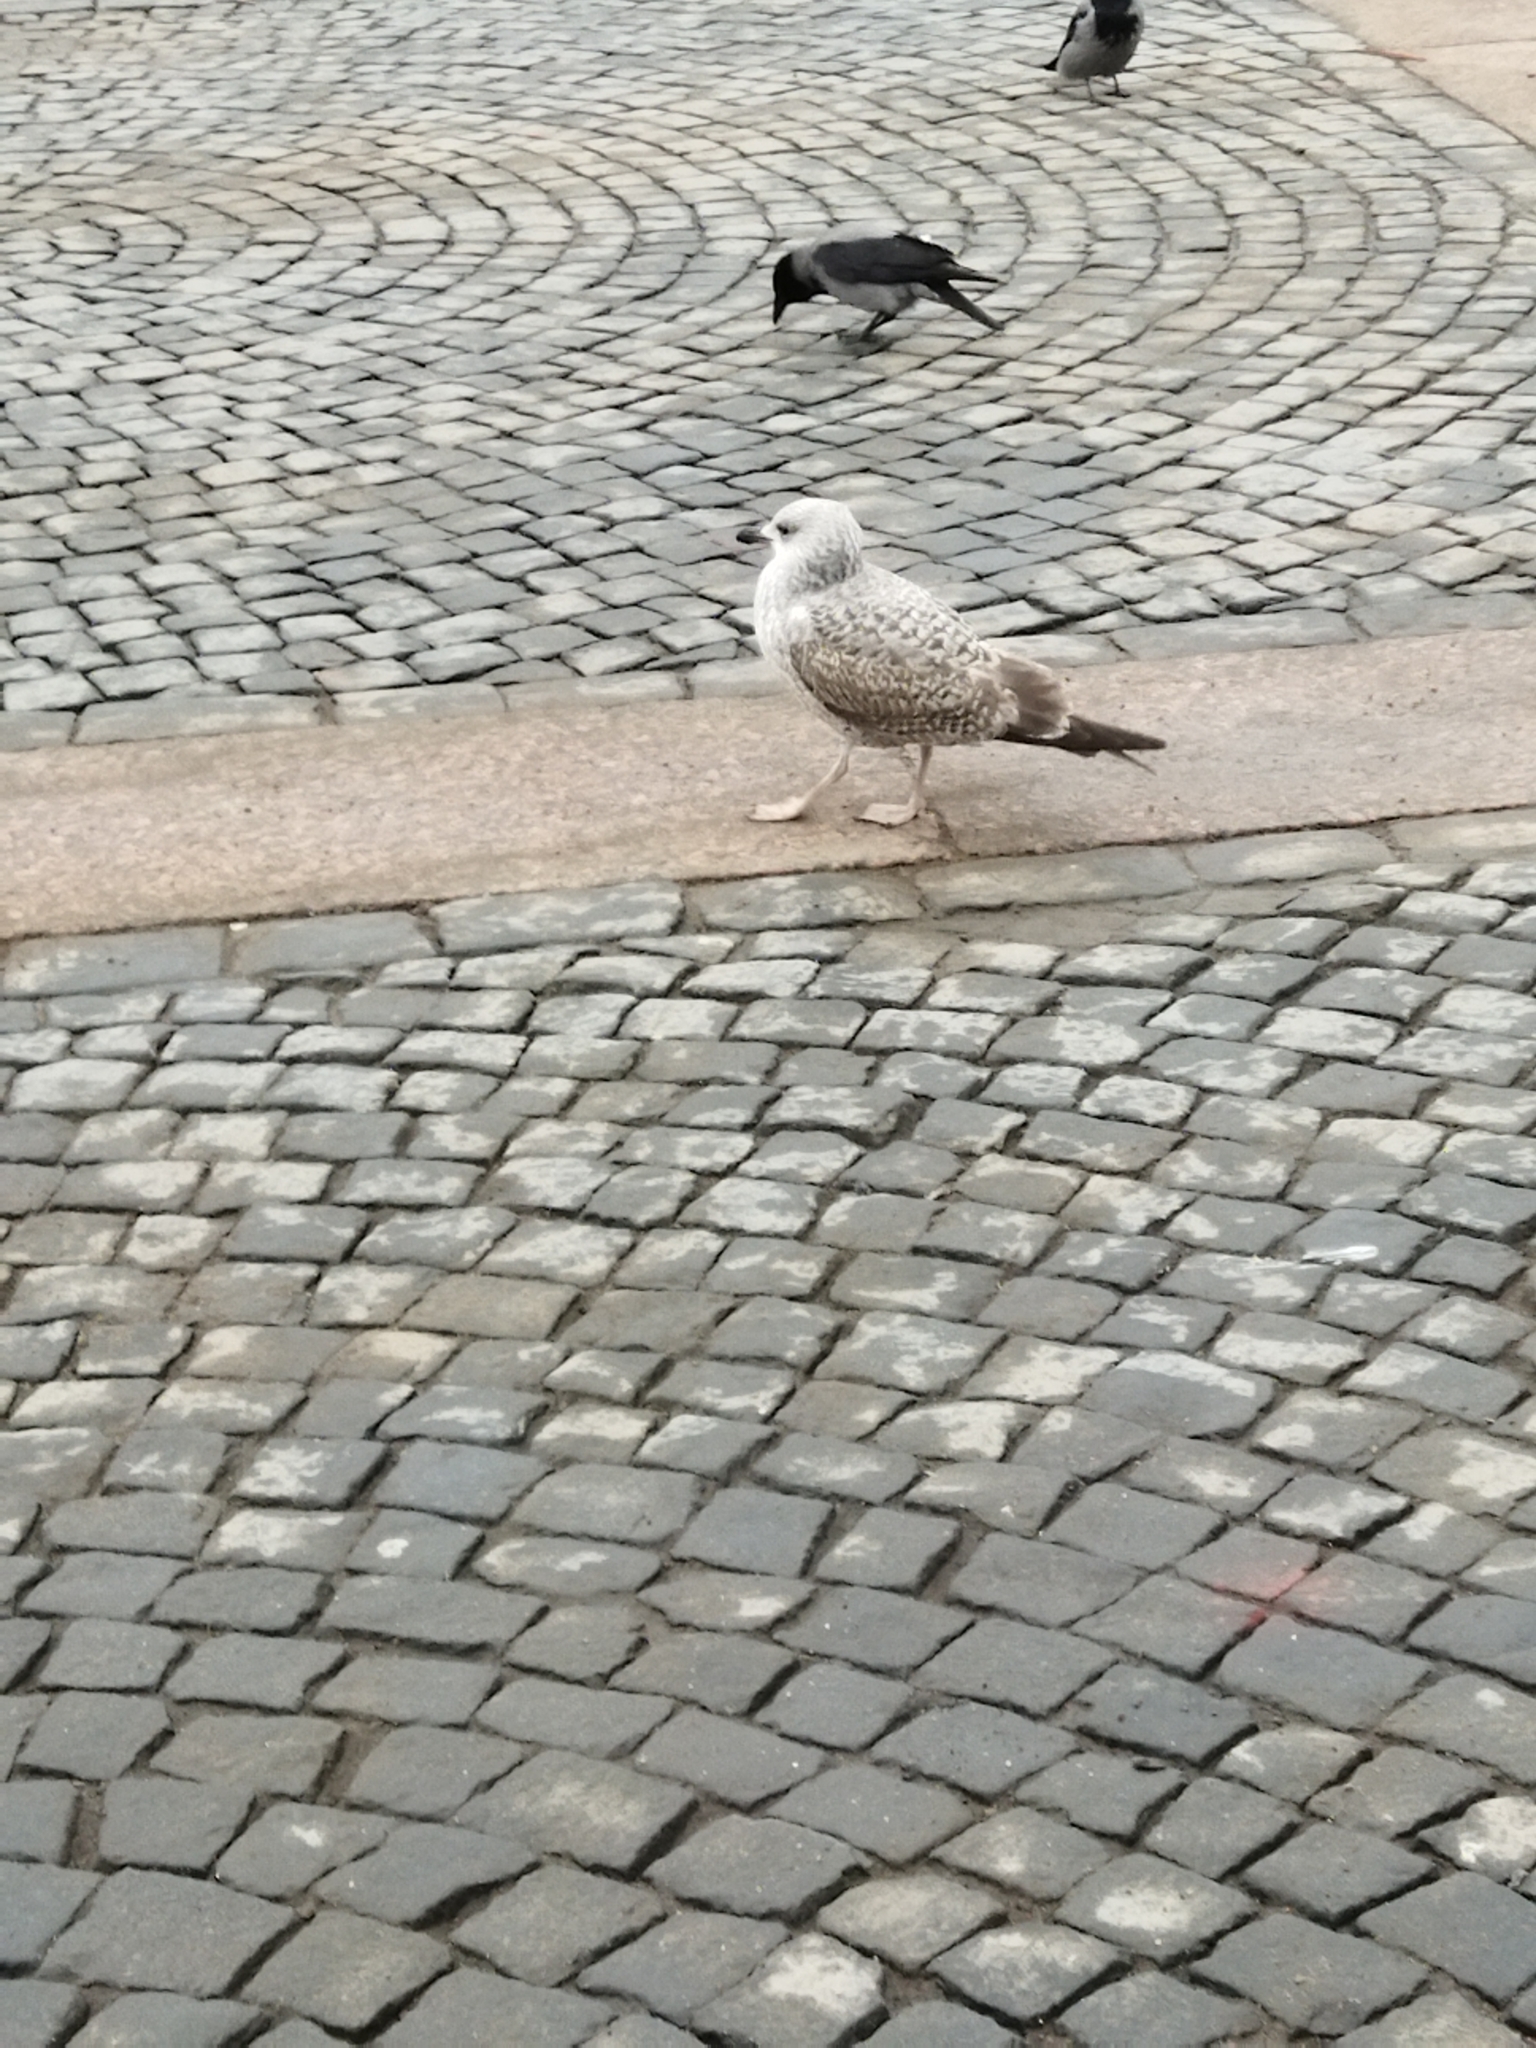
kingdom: Animalia
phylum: Chordata
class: Aves
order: Charadriiformes
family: Laridae
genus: Larus
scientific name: Larus argentatus
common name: Herring gull
